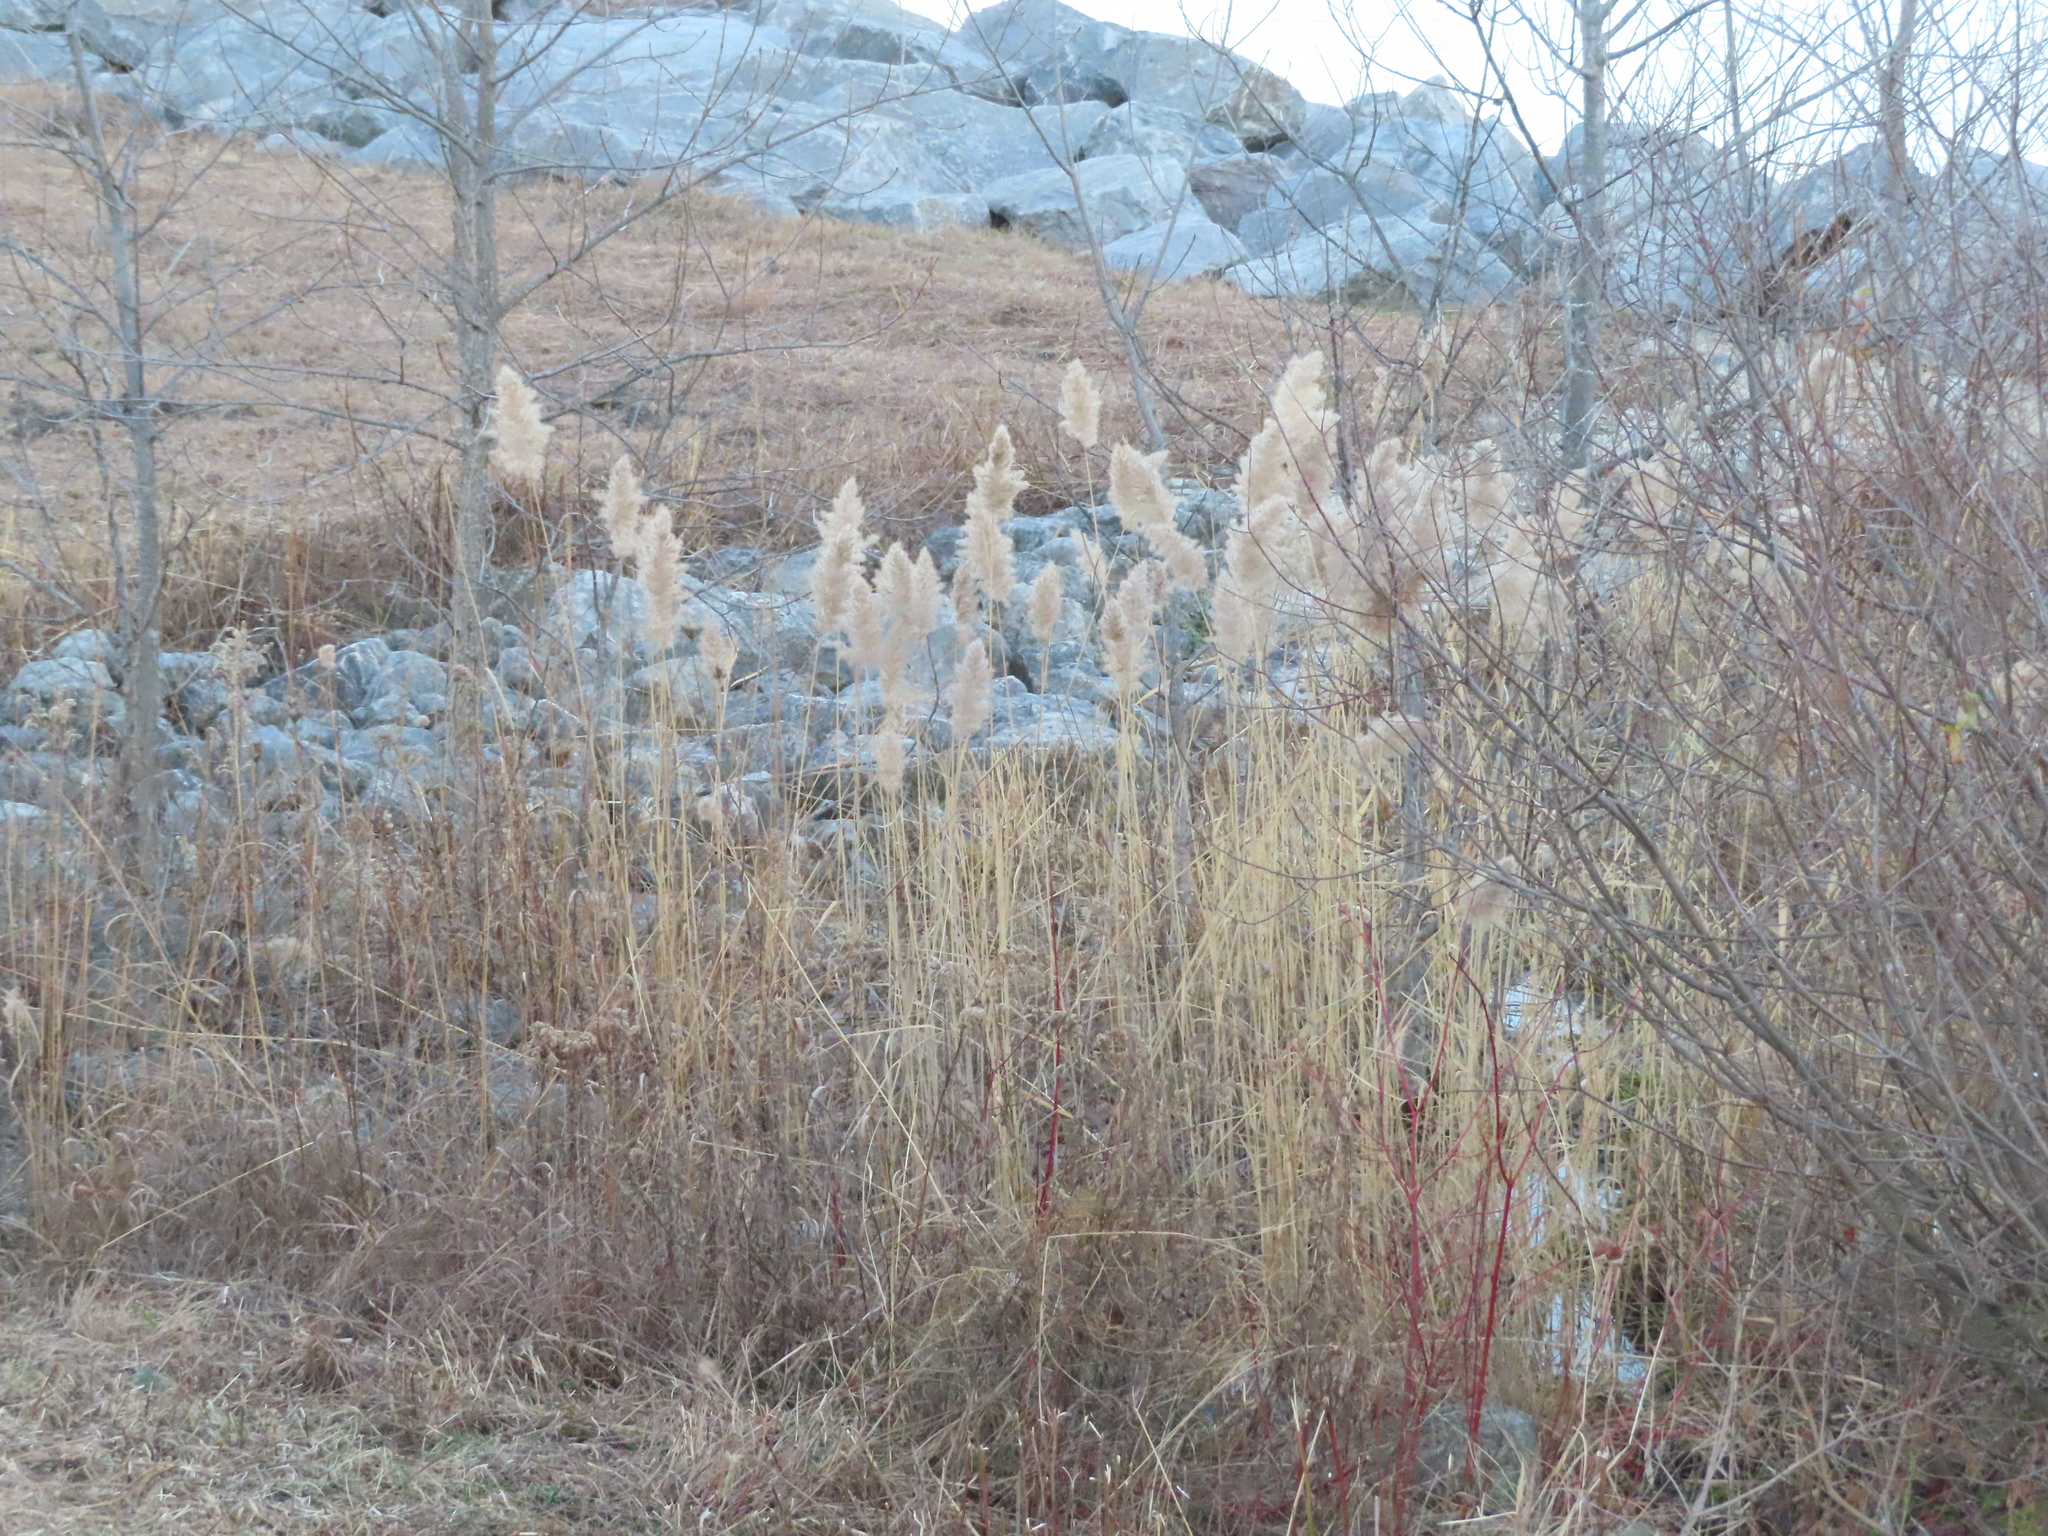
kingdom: Plantae
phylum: Tracheophyta
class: Liliopsida
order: Poales
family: Poaceae
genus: Phragmites
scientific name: Phragmites australis
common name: Common reed
